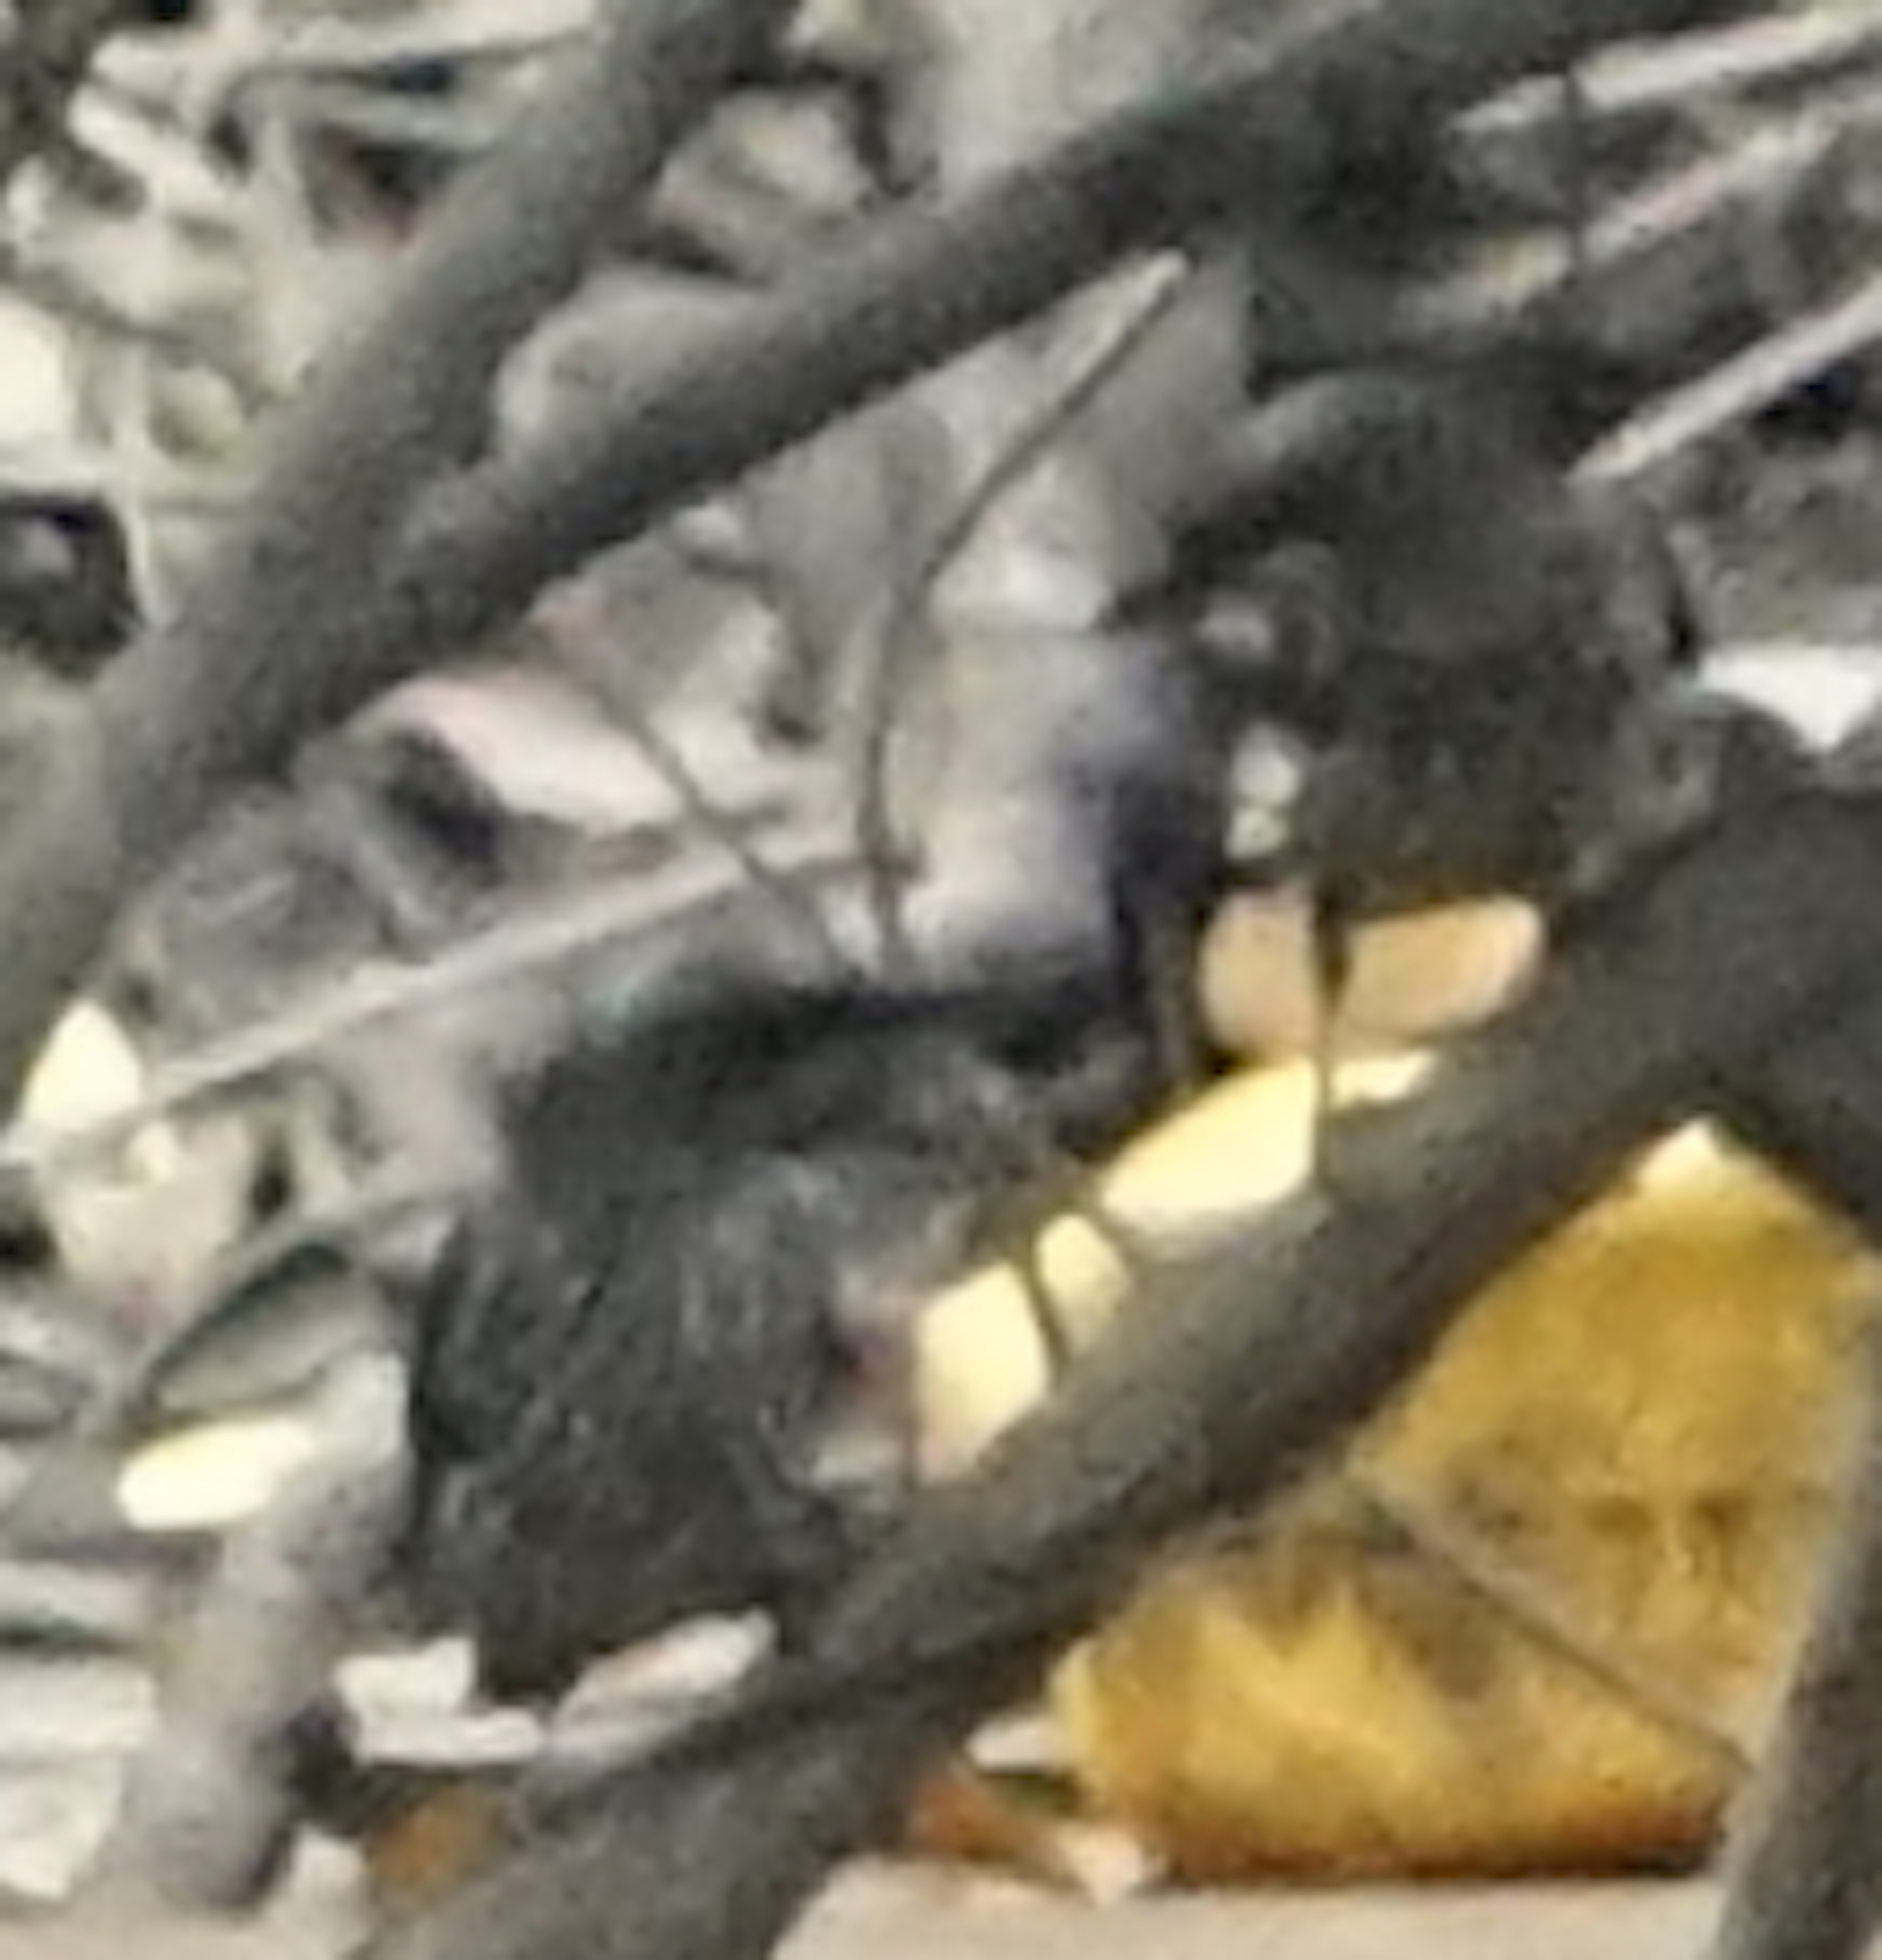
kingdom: Animalia
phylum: Chordata
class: Aves
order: Passeriformes
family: Sturnidae
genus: Aplonis
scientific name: Aplonis panayensis
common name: Asian glossy starling
